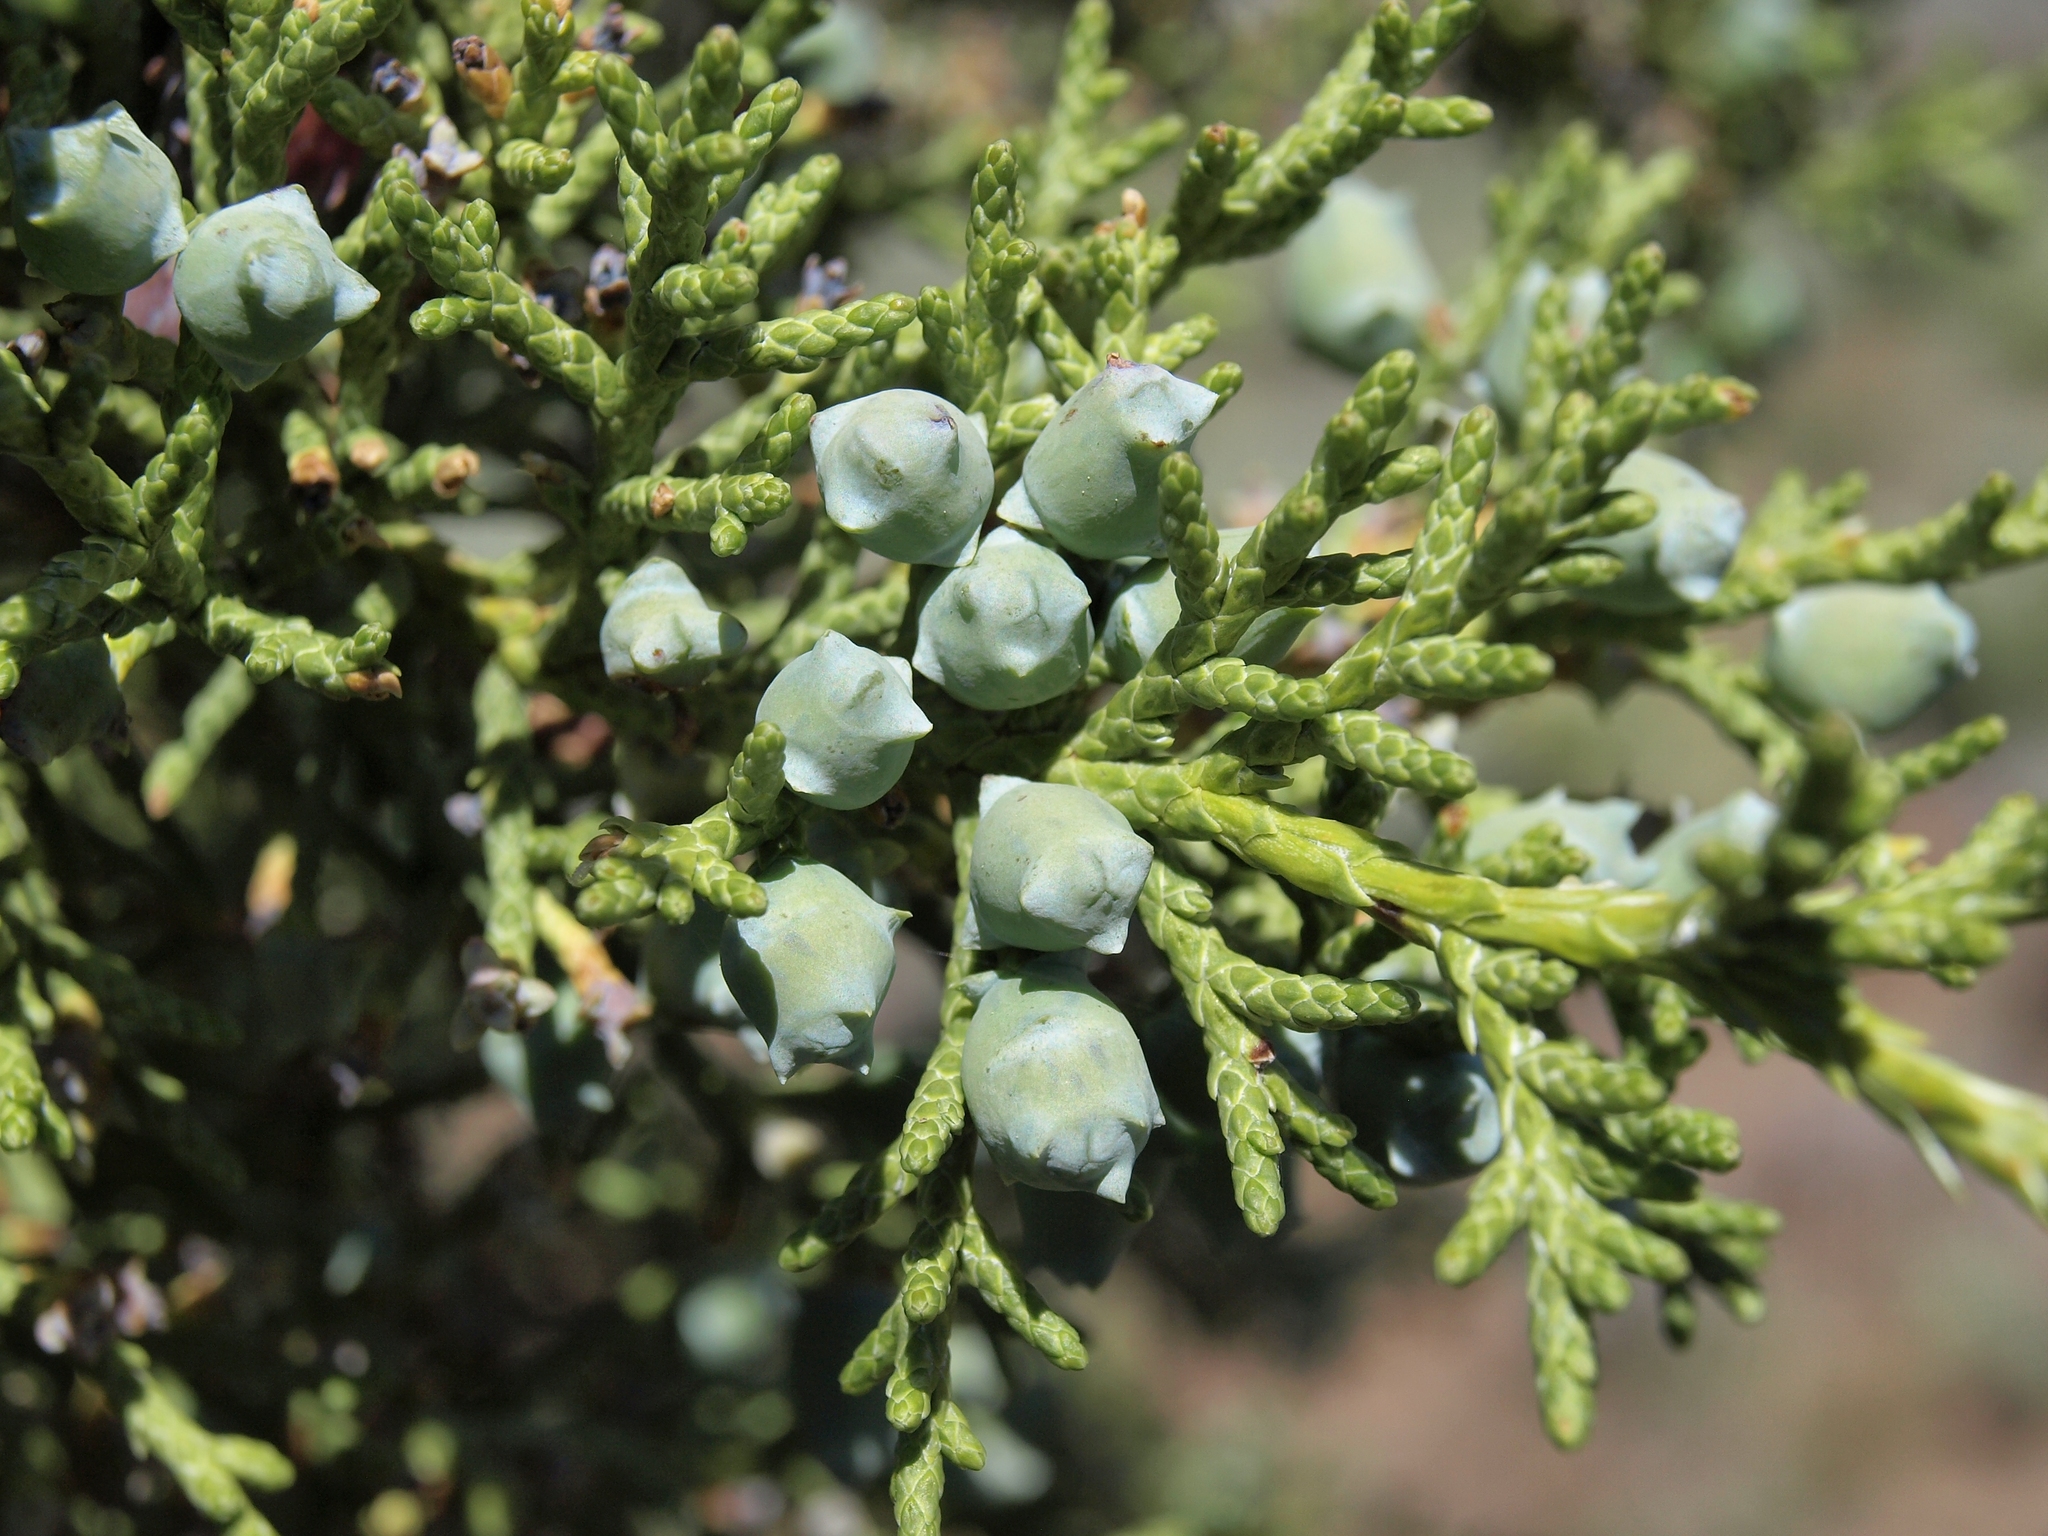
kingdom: Plantae
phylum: Tracheophyta
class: Pinopsida
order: Pinales
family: Cupressaceae
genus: Juniperus
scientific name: Juniperus osteosperma
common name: Utah juniper
